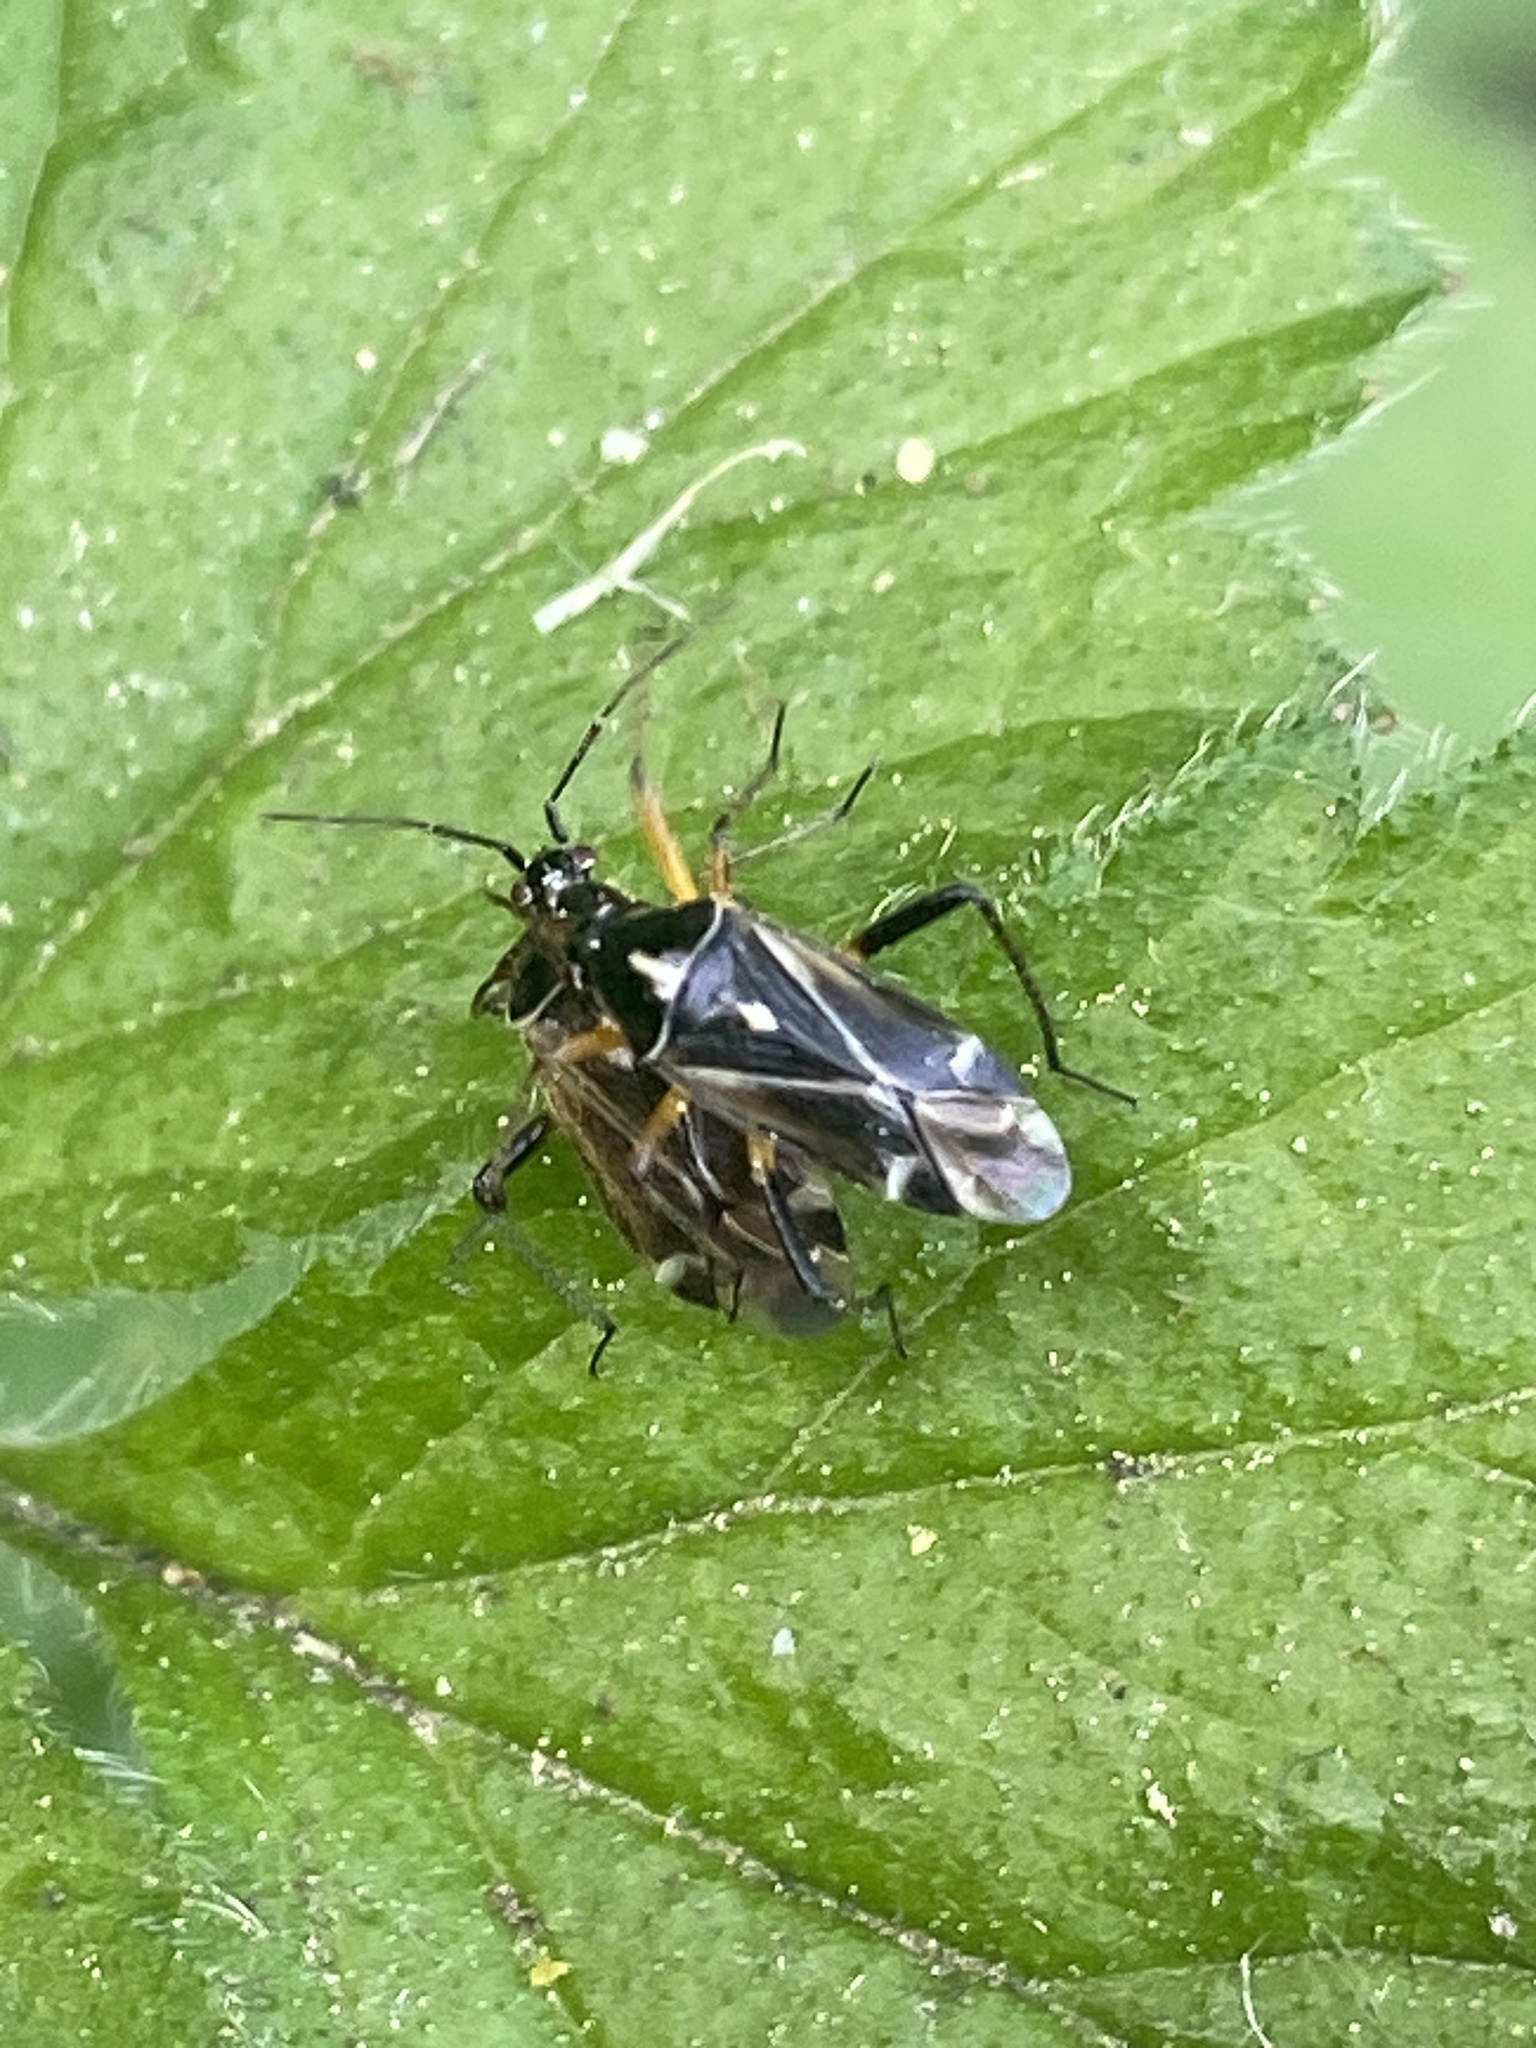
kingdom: Animalia
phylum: Arthropoda
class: Insecta
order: Hemiptera
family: Miridae
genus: Harpocera
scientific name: Harpocera thoracica
